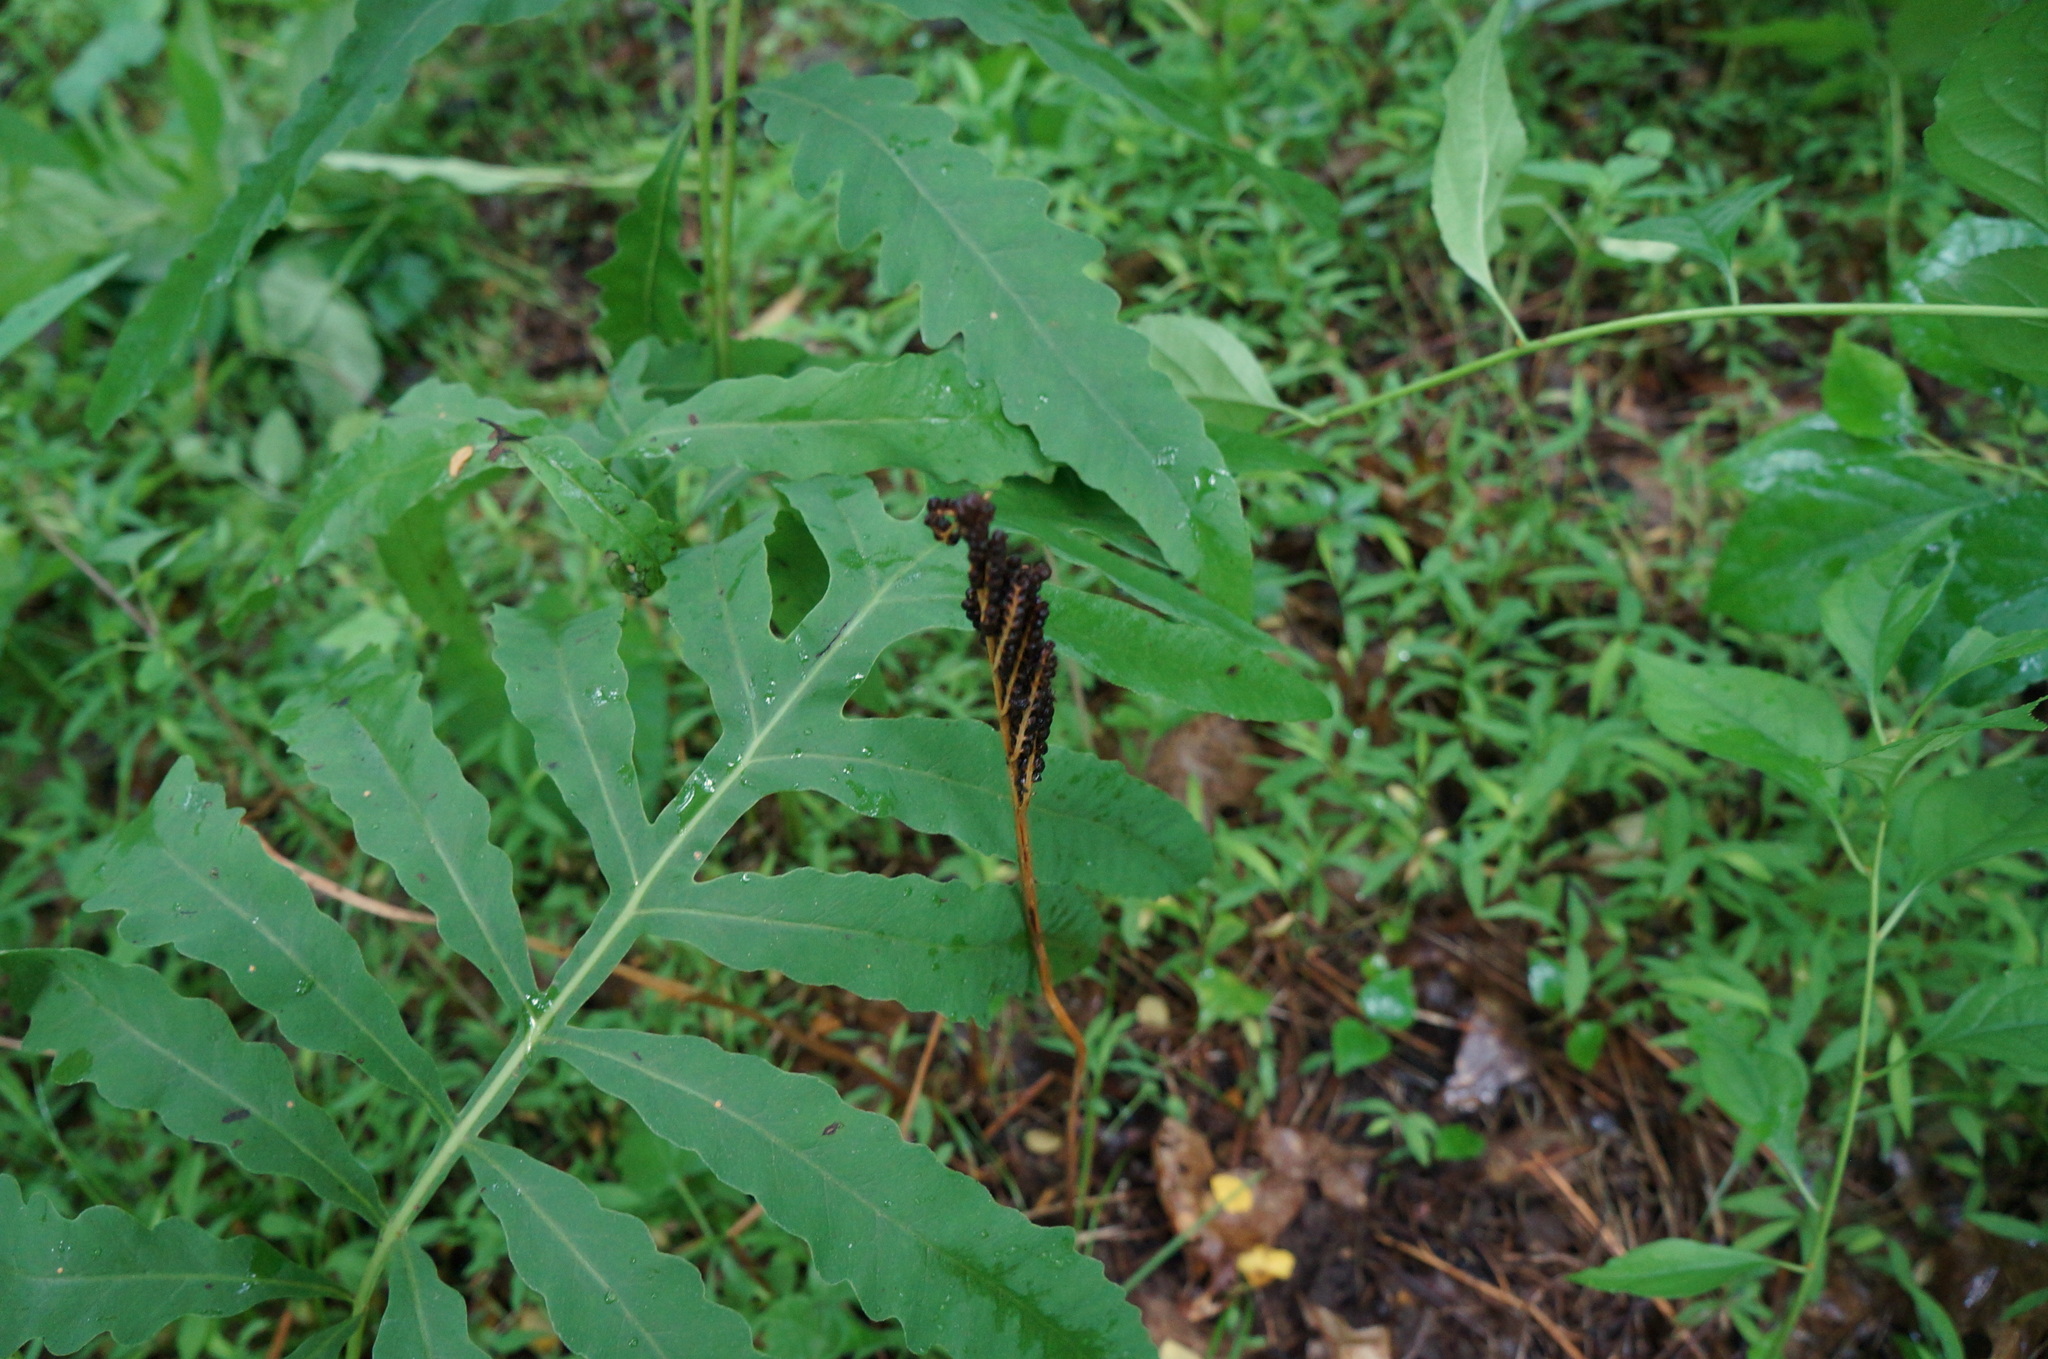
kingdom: Plantae
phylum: Tracheophyta
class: Polypodiopsida
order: Polypodiales
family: Onocleaceae
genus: Onoclea
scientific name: Onoclea sensibilis
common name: Sensitive fern
